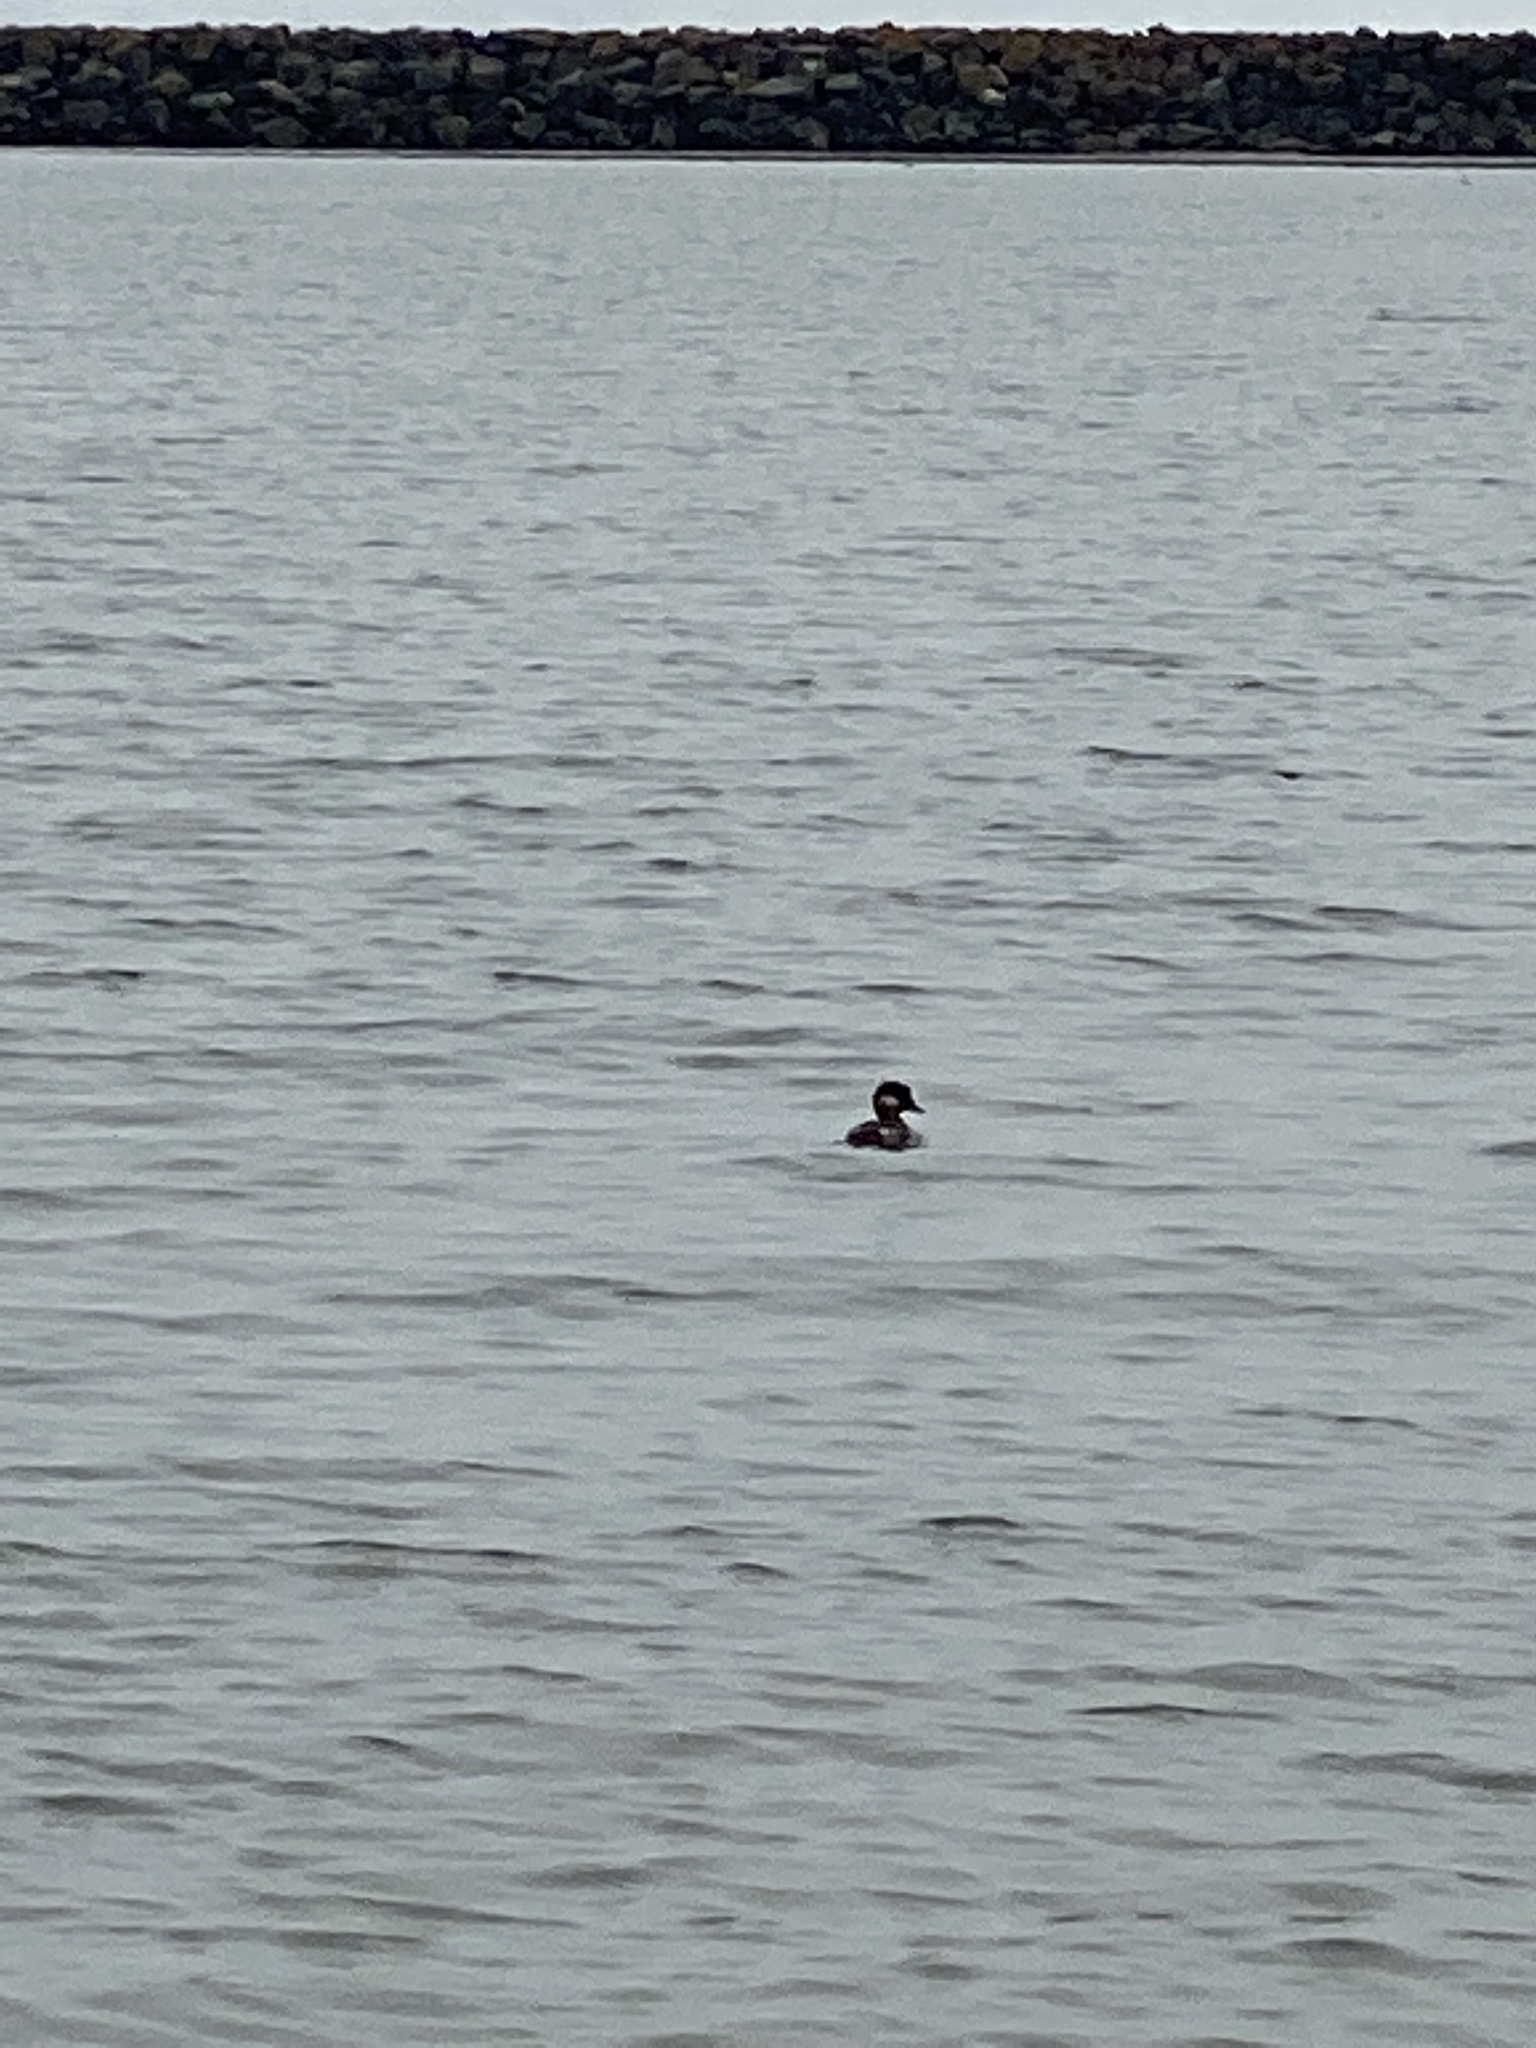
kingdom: Animalia
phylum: Chordata
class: Aves
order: Anseriformes
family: Anatidae
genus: Bucephala
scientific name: Bucephala albeola
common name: Bufflehead
